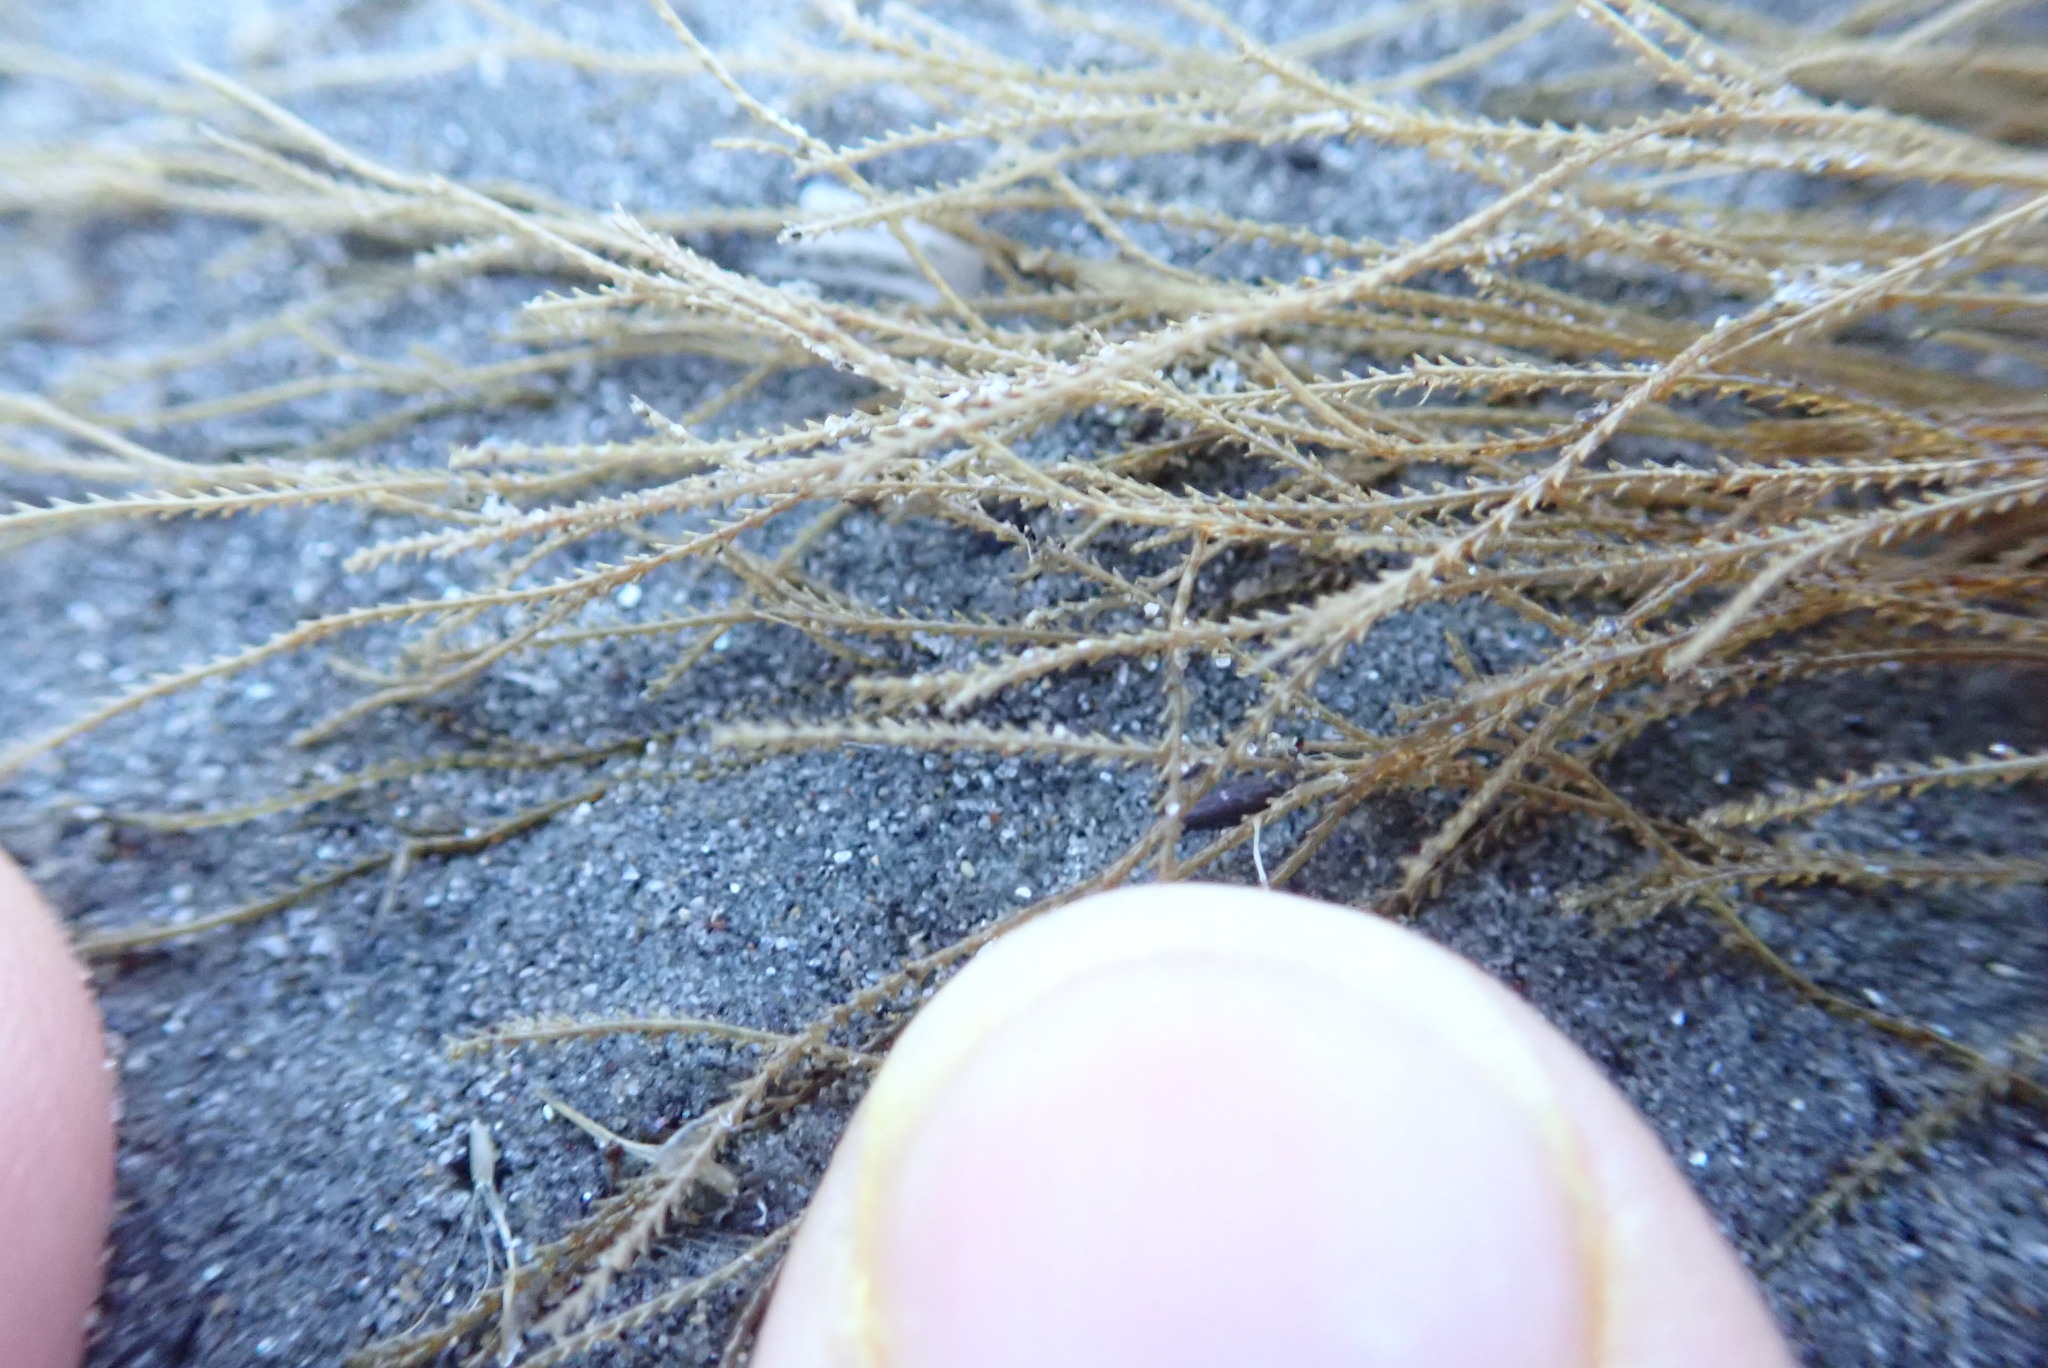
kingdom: Animalia
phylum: Cnidaria
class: Hydrozoa
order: Leptothecata
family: Sertulariidae
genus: Amphisbetia
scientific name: Amphisbetia bispinosa
